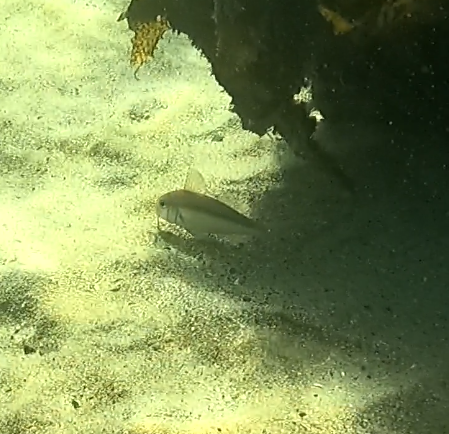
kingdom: Animalia
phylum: Chordata
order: Perciformes
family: Mullidae
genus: Upeneichthys
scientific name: Upeneichthys lineatus
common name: Red mullet
